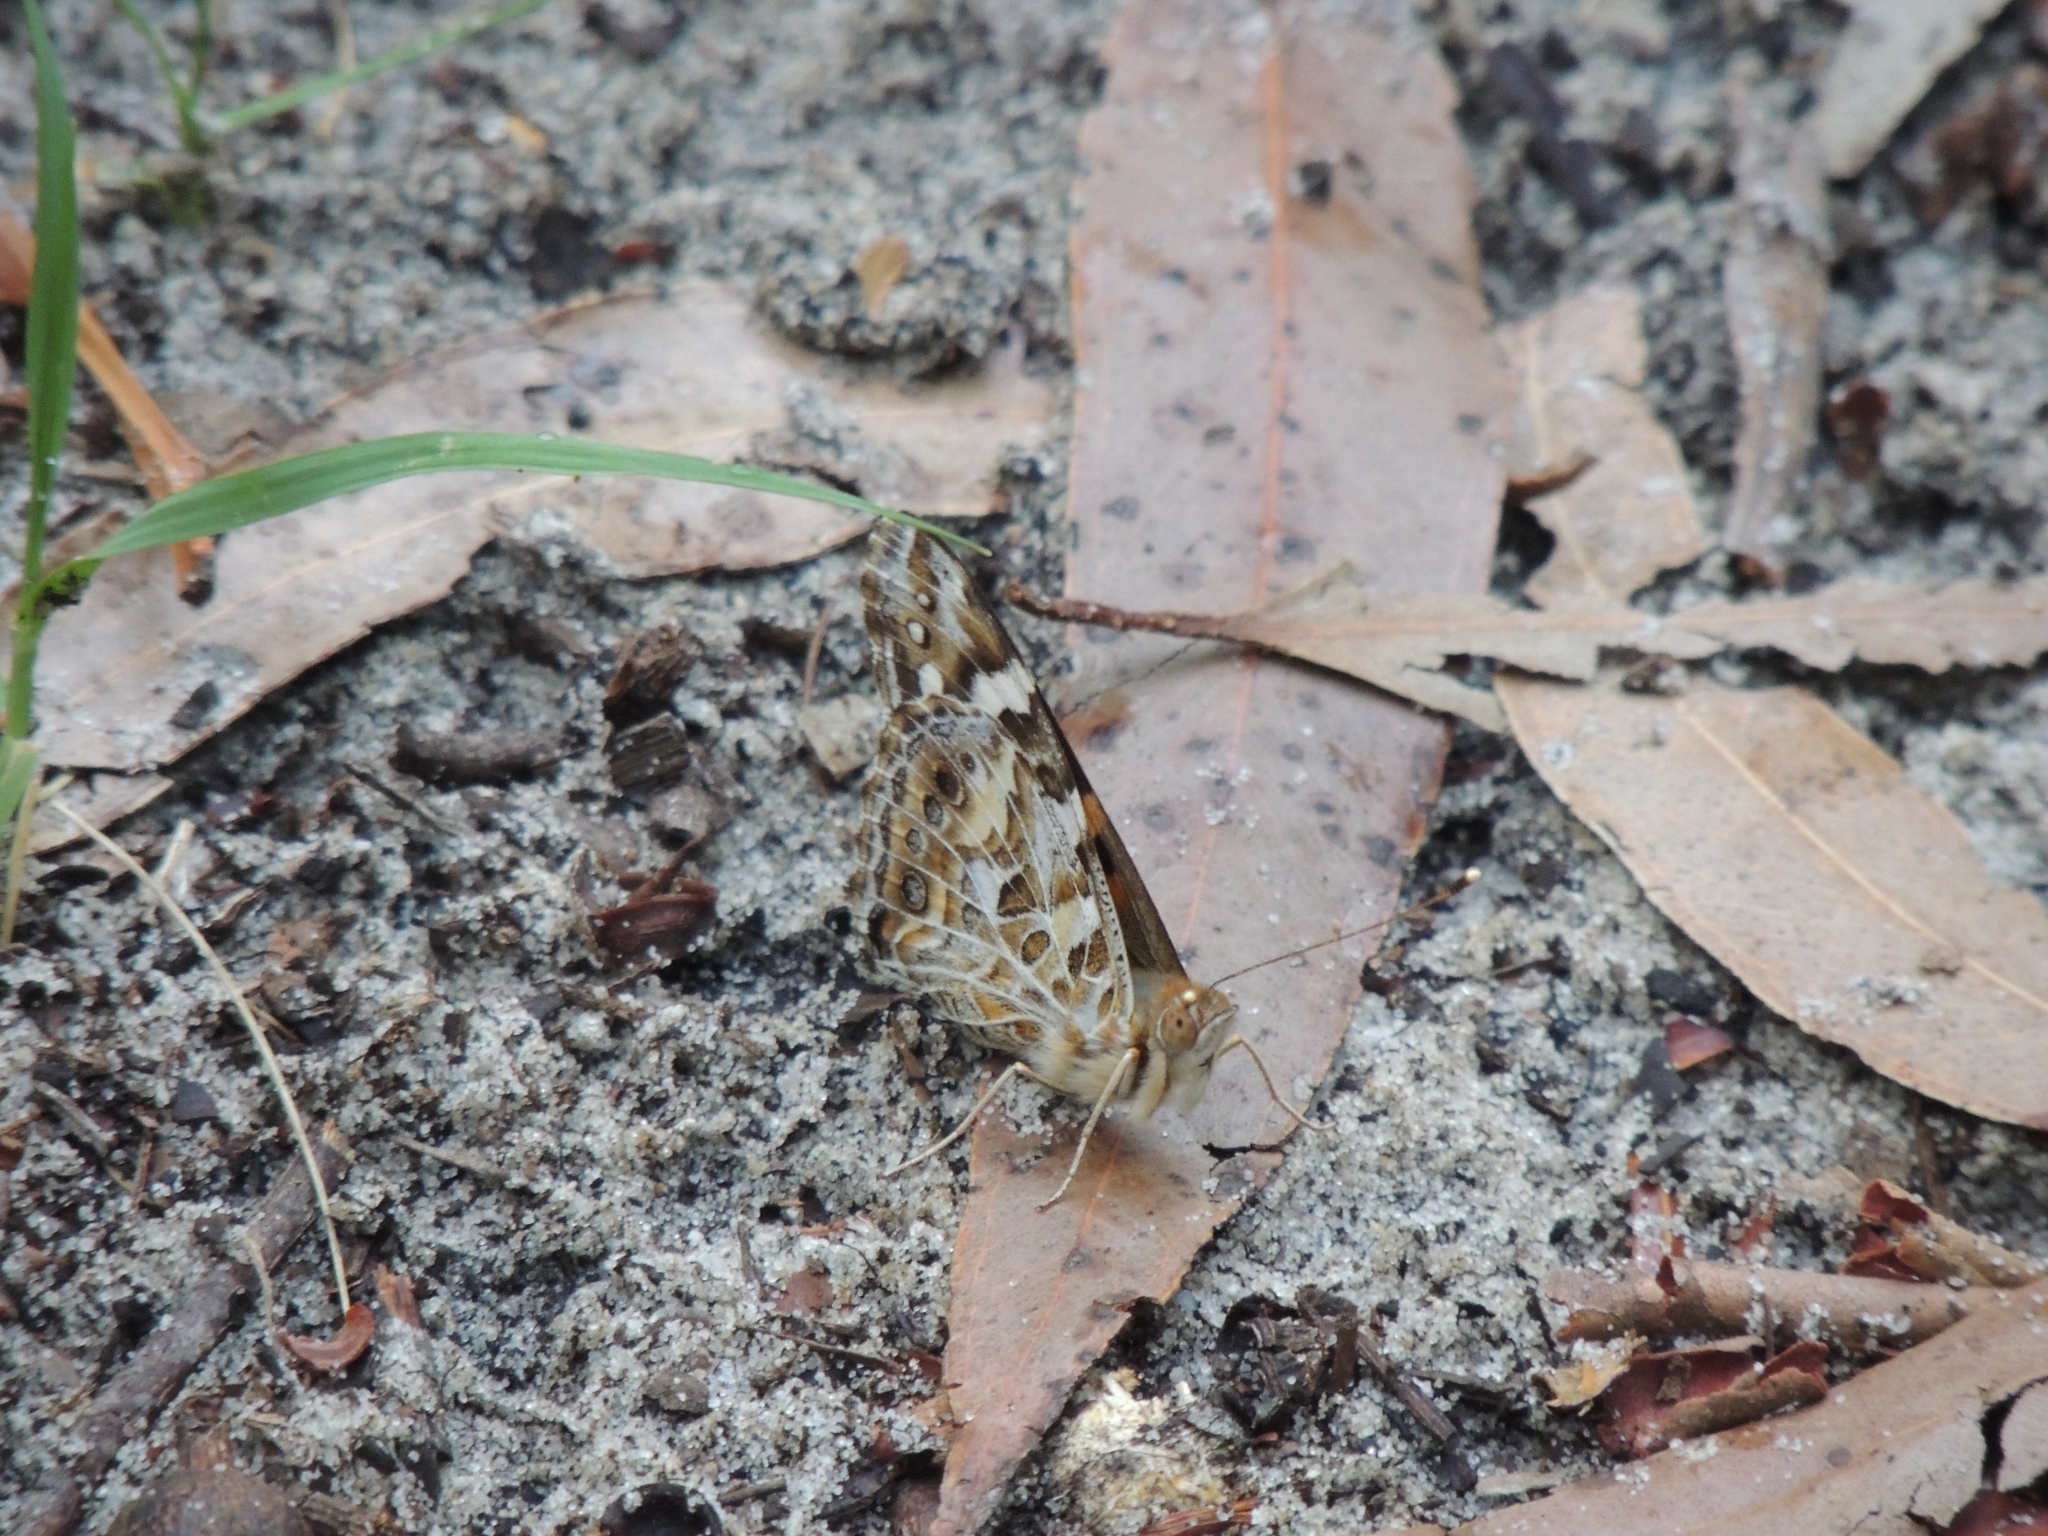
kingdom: Animalia
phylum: Arthropoda
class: Insecta
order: Lepidoptera
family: Nymphalidae
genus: Vanessa
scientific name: Vanessa kershawi
